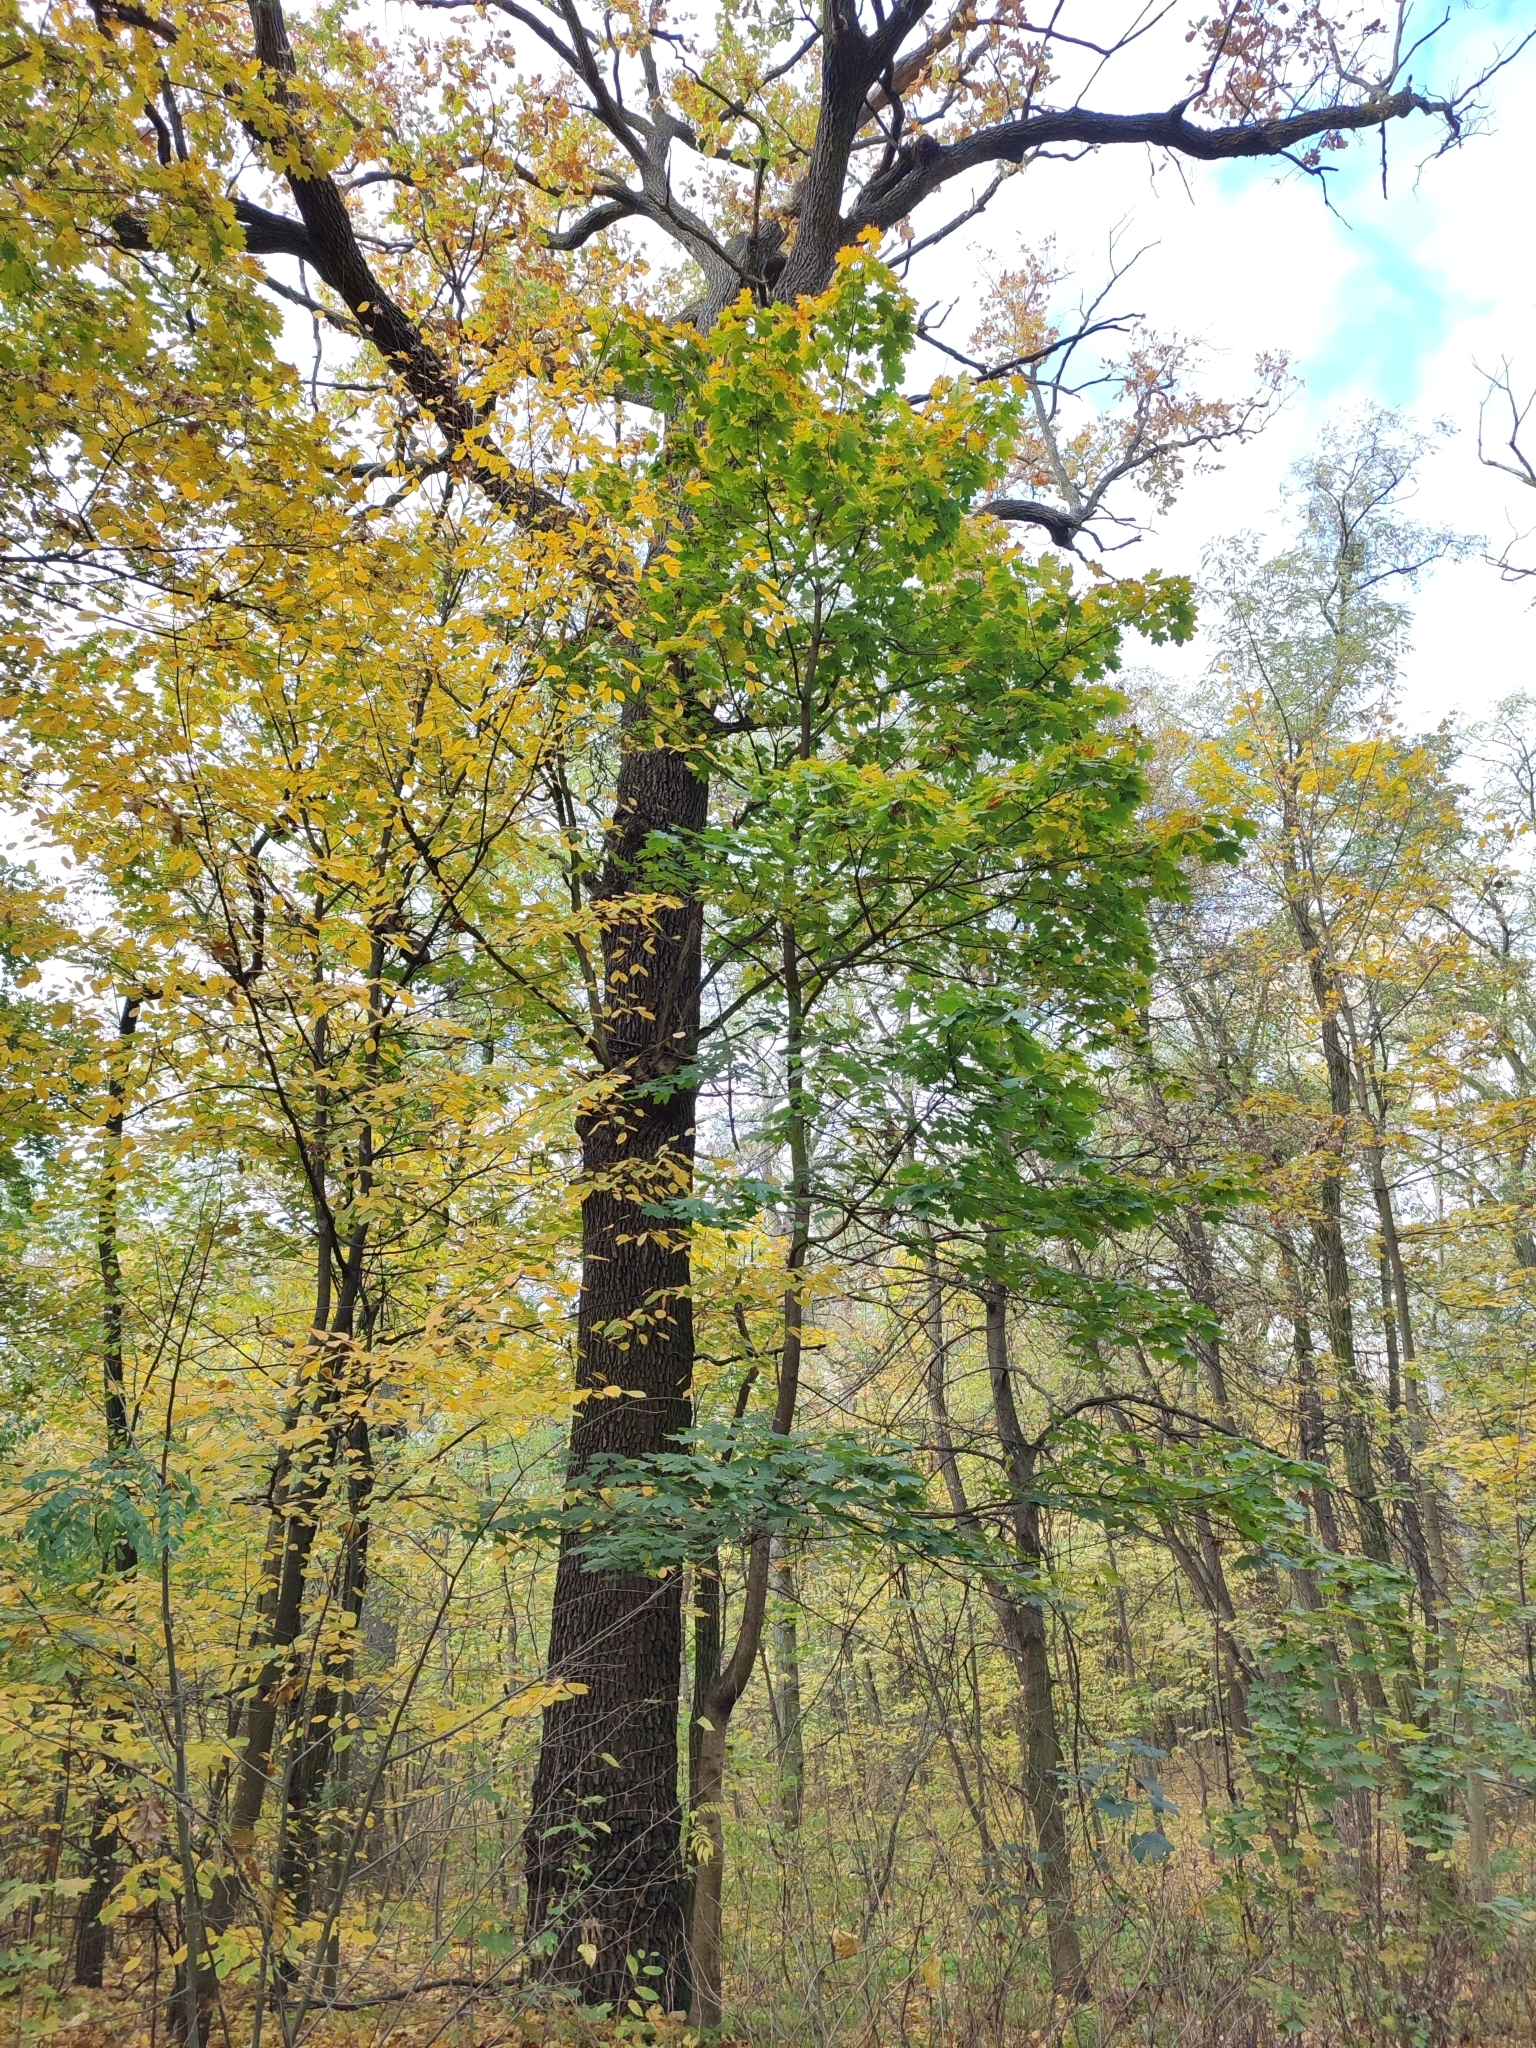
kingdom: Plantae
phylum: Tracheophyta
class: Magnoliopsida
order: Fagales
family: Fagaceae
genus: Quercus
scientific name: Quercus robur
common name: Pedunculate oak
